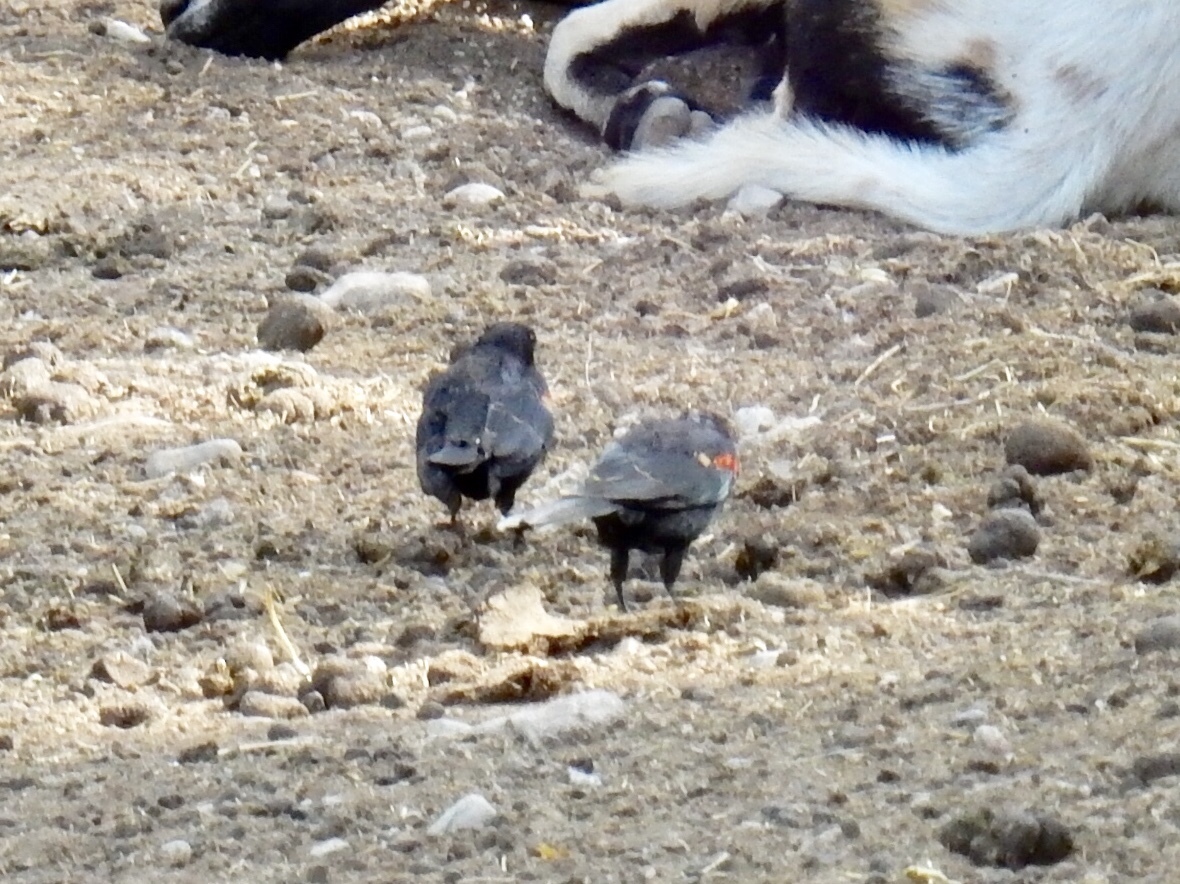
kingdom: Animalia
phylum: Chordata
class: Aves
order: Passeriformes
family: Icteridae
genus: Agelaius
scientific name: Agelaius phoeniceus
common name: Red-winged blackbird
